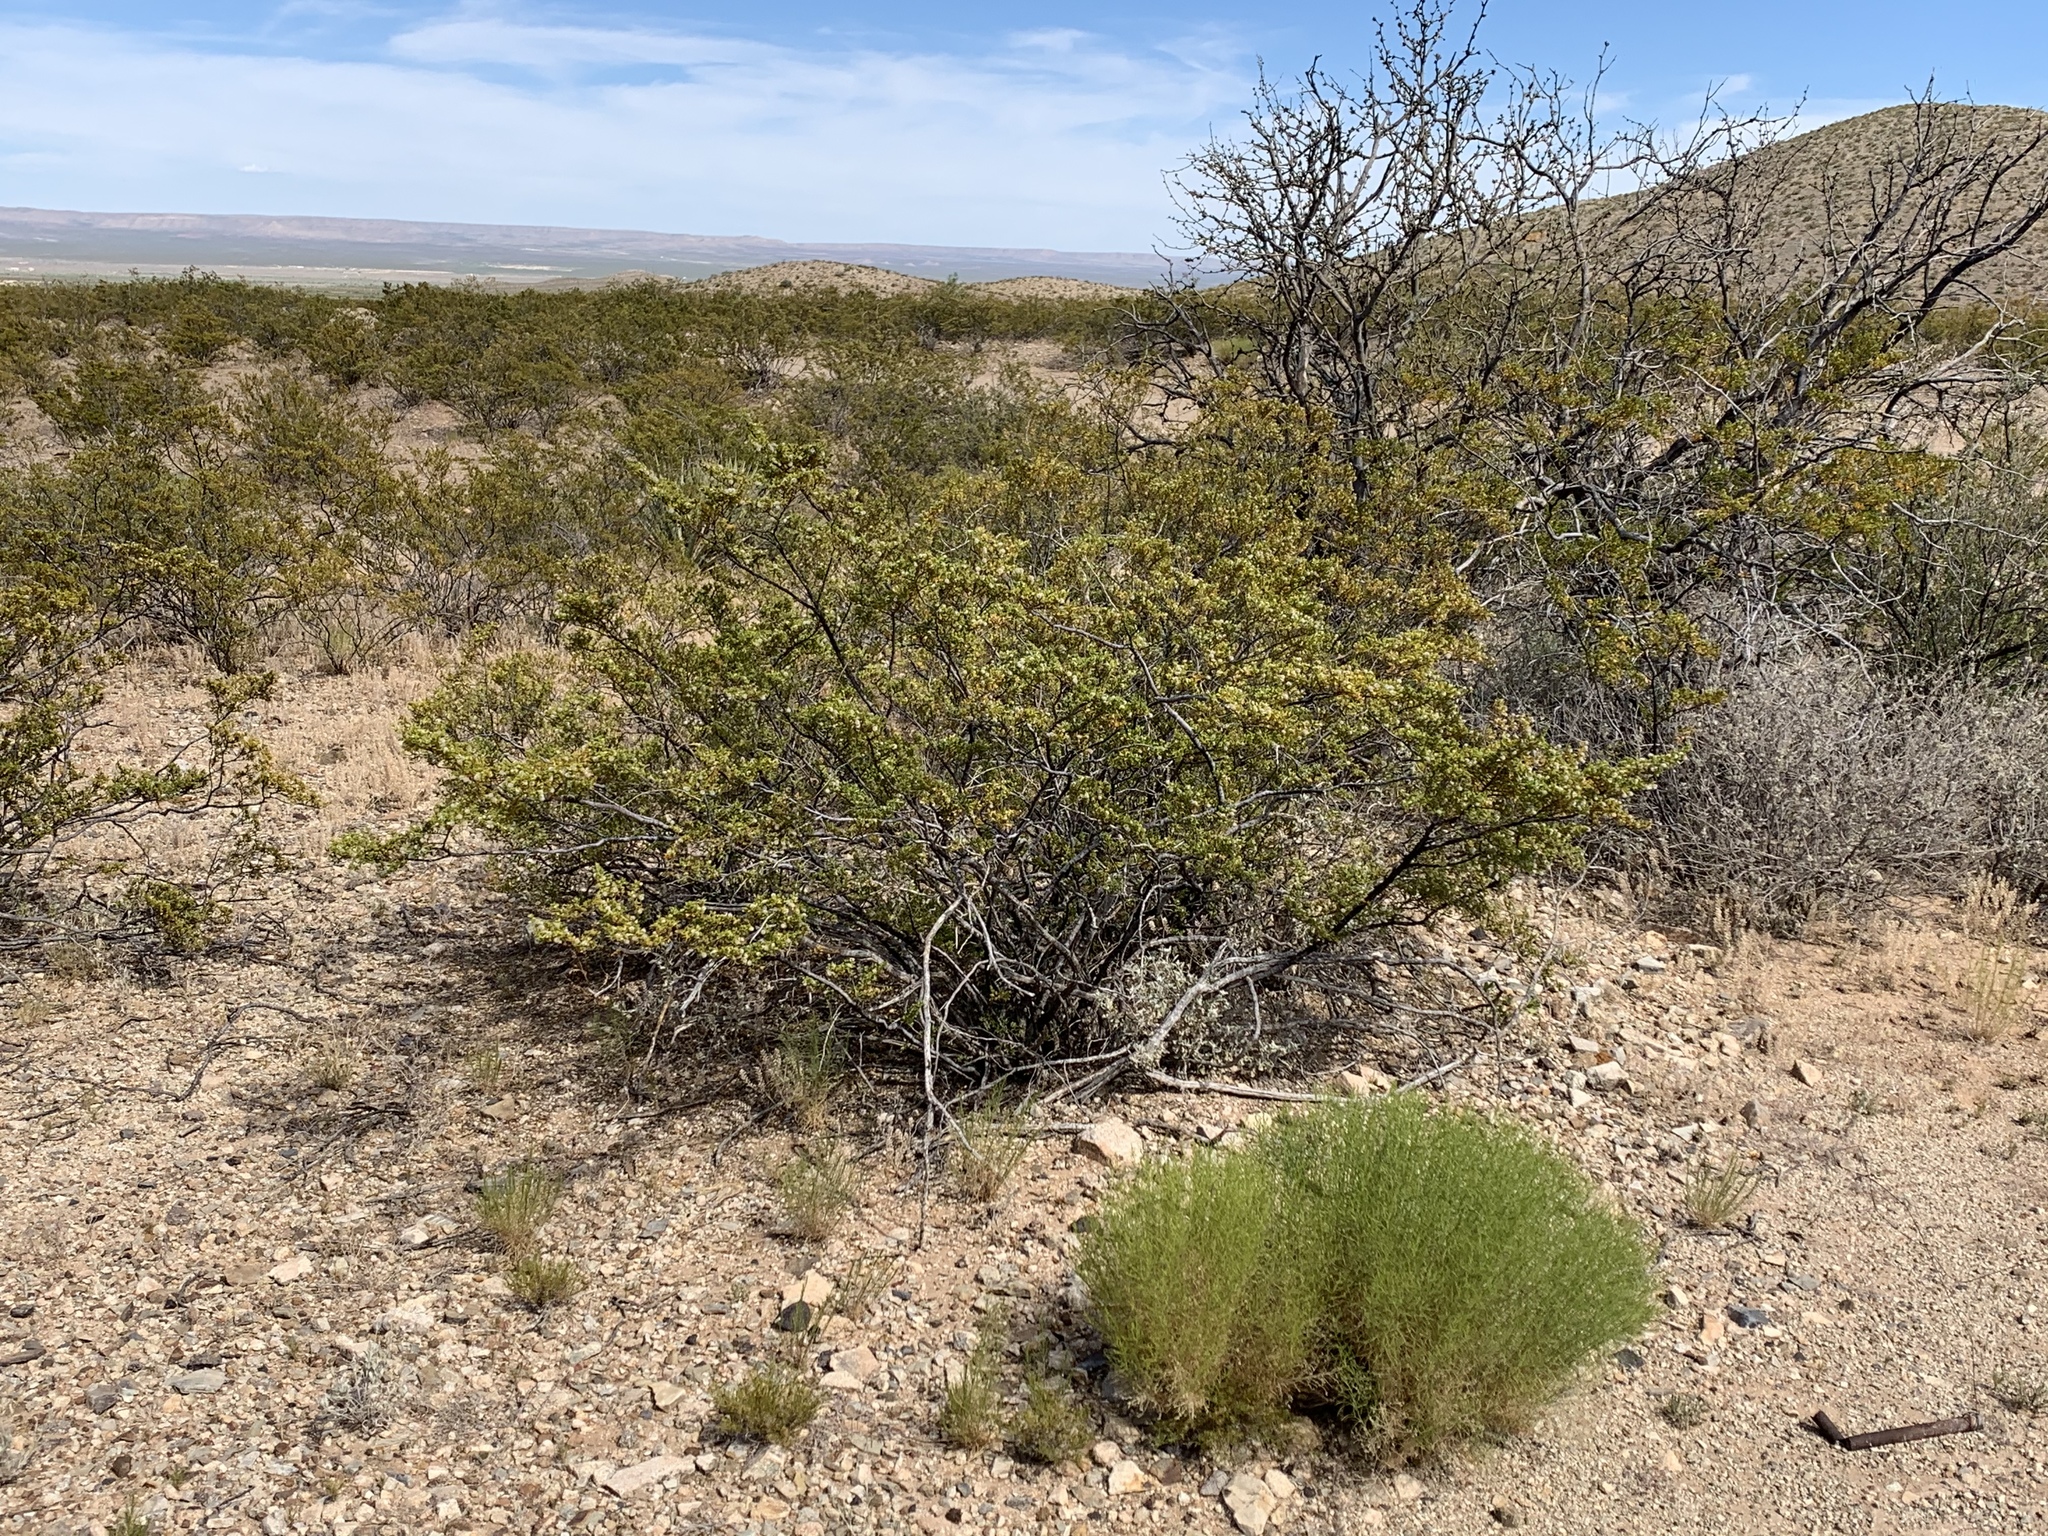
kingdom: Plantae
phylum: Tracheophyta
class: Magnoliopsida
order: Zygophyllales
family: Zygophyllaceae
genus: Larrea
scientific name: Larrea tridentata
